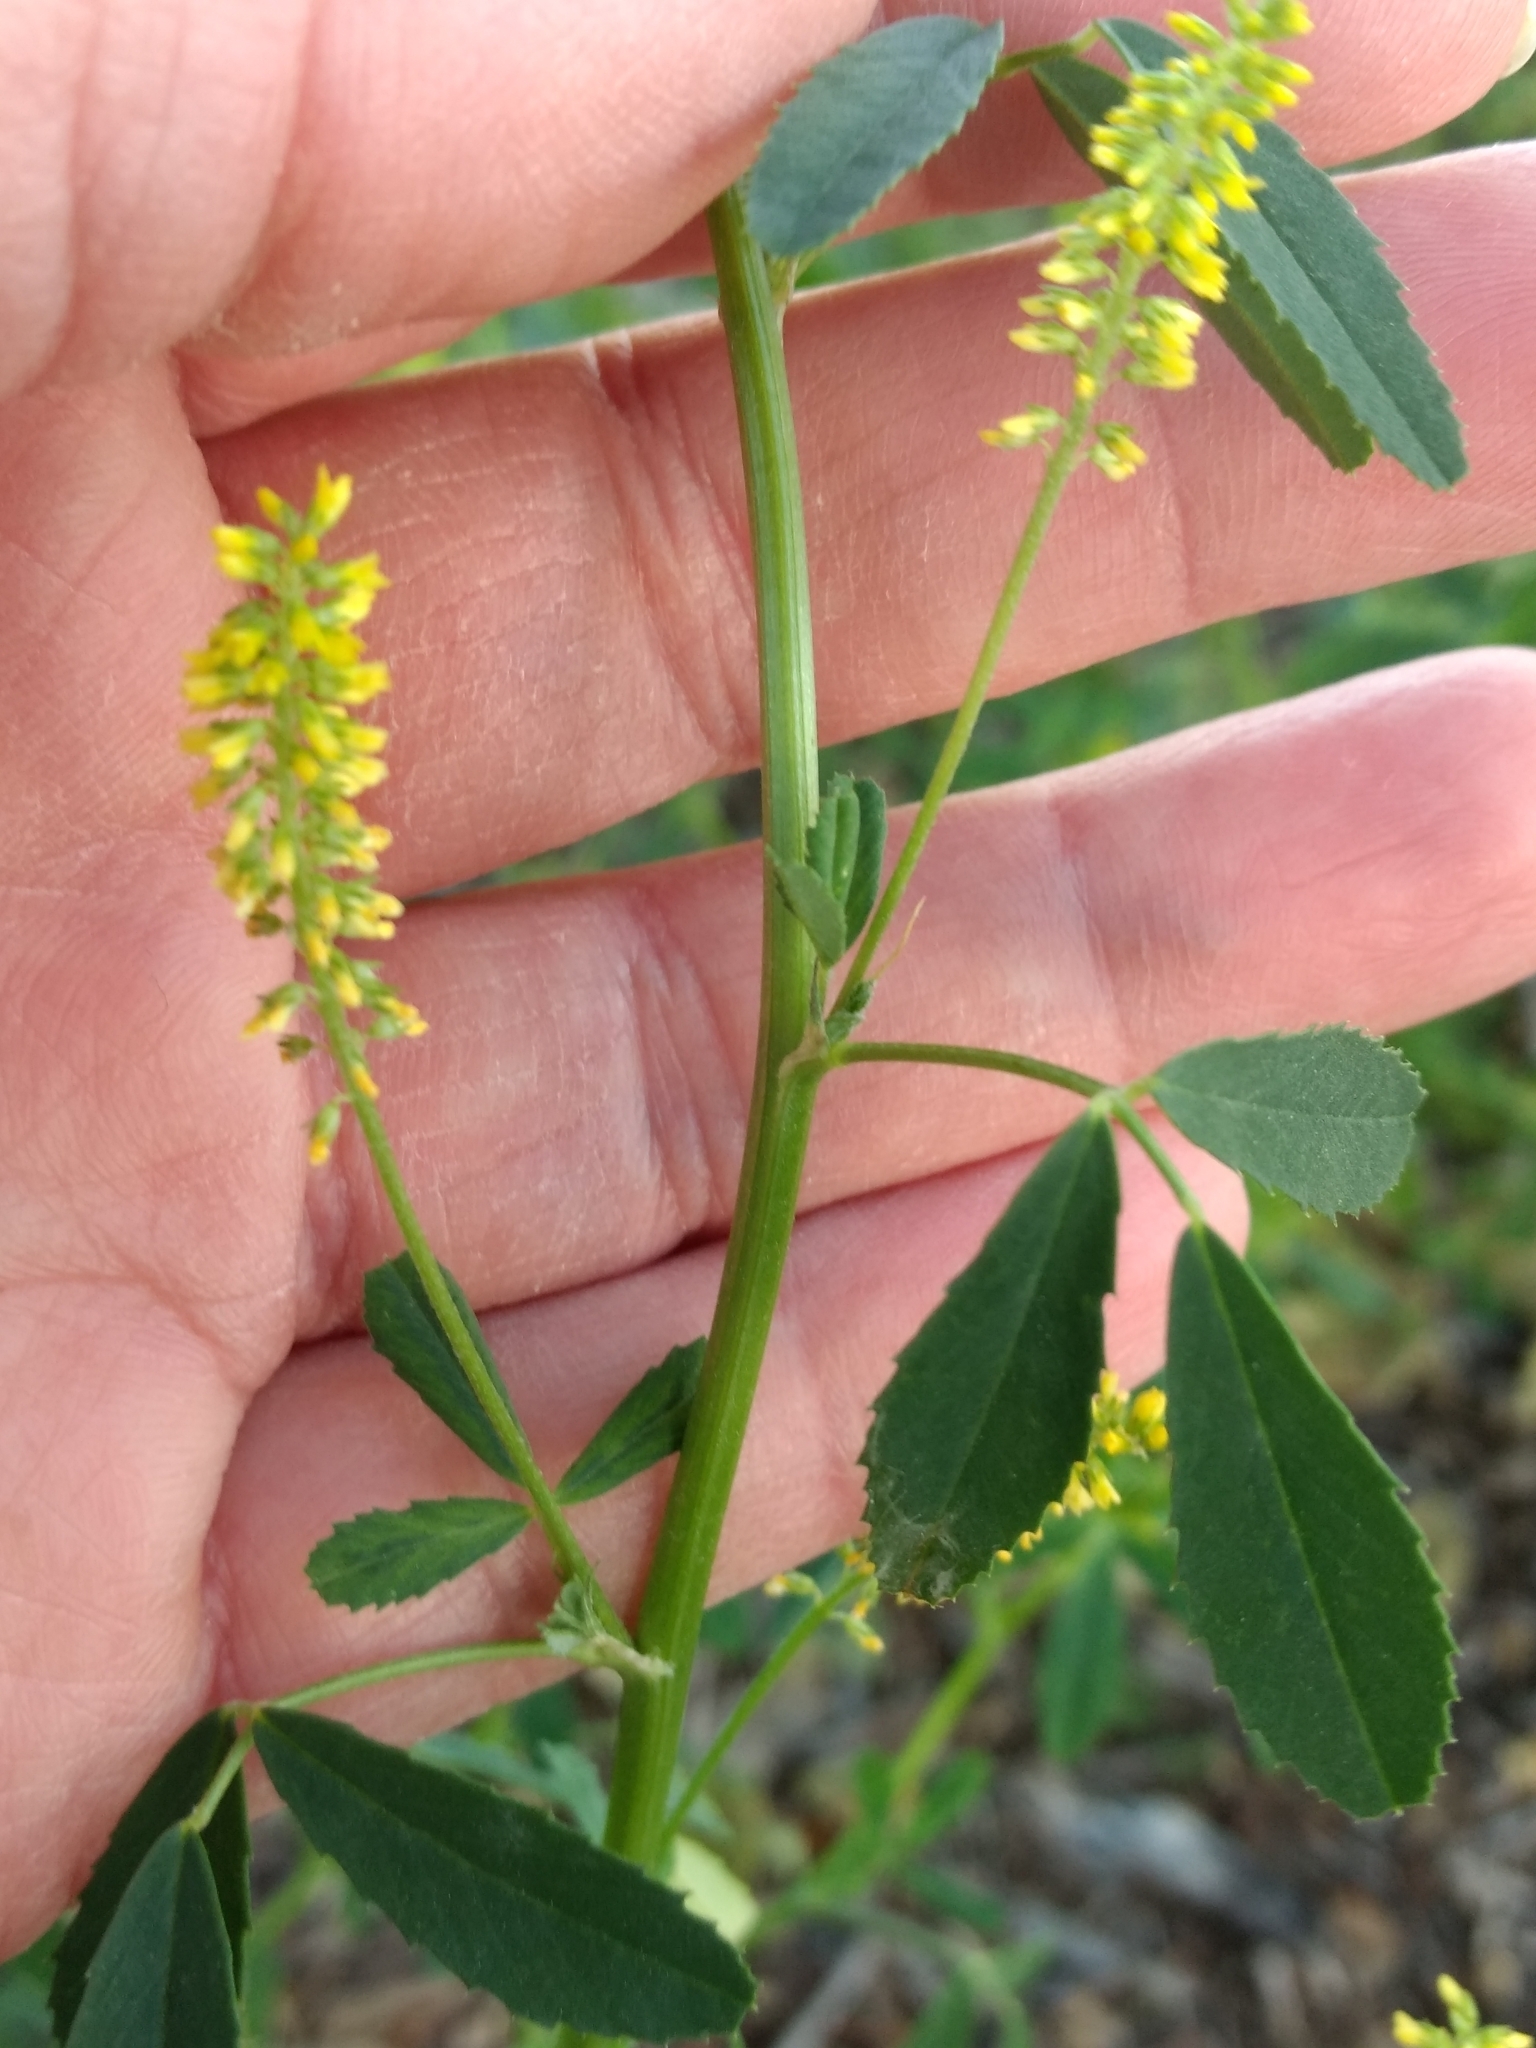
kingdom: Plantae
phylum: Tracheophyta
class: Magnoliopsida
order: Fabales
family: Fabaceae
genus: Melilotus
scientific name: Melilotus indicus
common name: Small melilot
